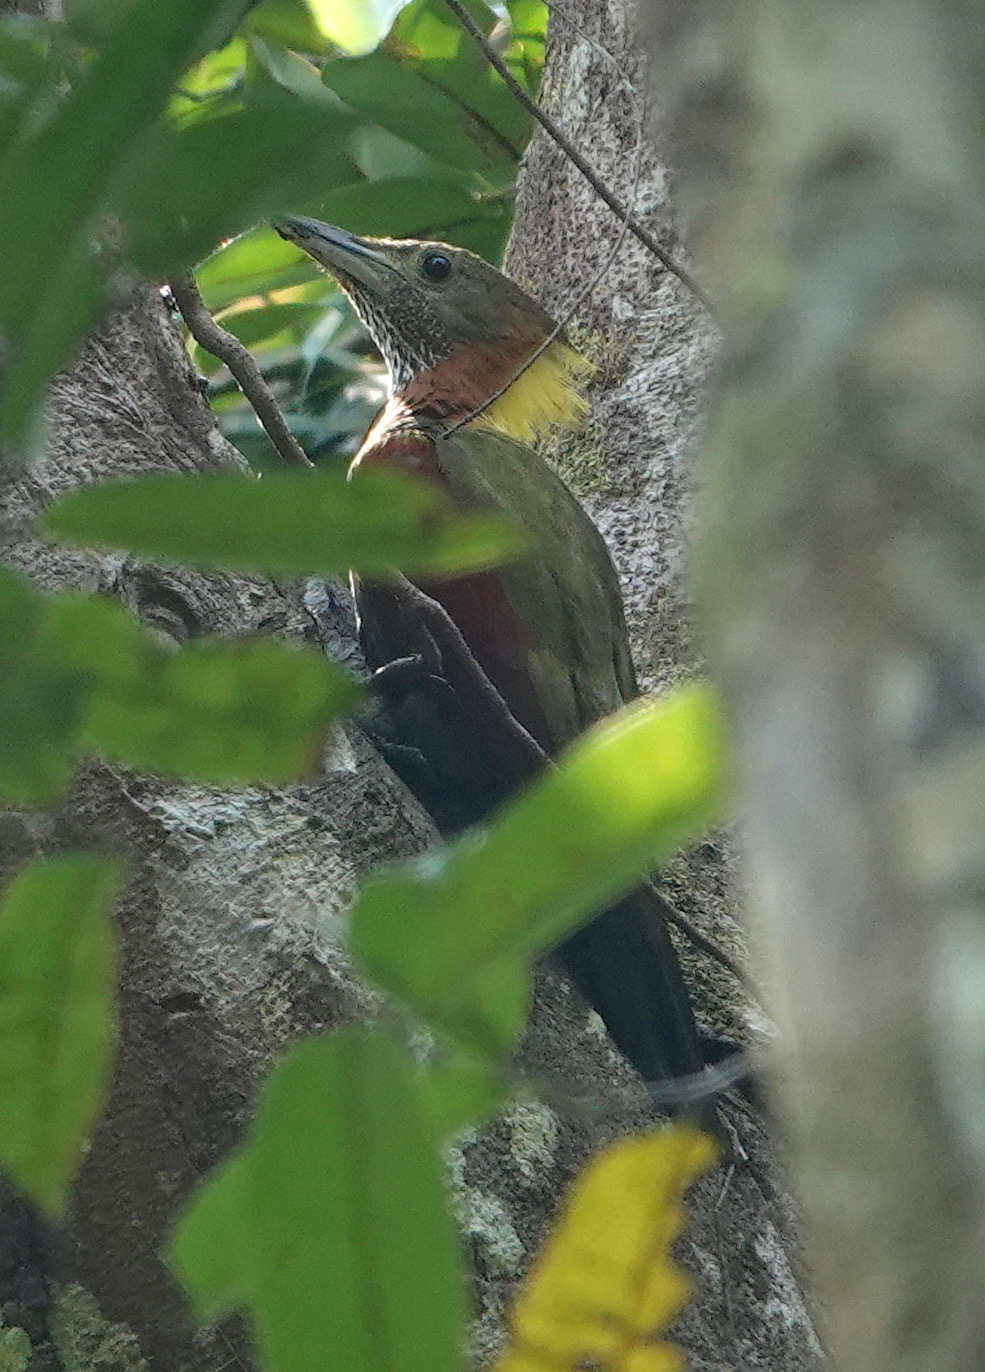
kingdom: Animalia
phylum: Chordata
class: Aves
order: Piciformes
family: Picidae
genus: Chrysophlegma
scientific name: Chrysophlegma mentale
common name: Checker-throated woodpecker
